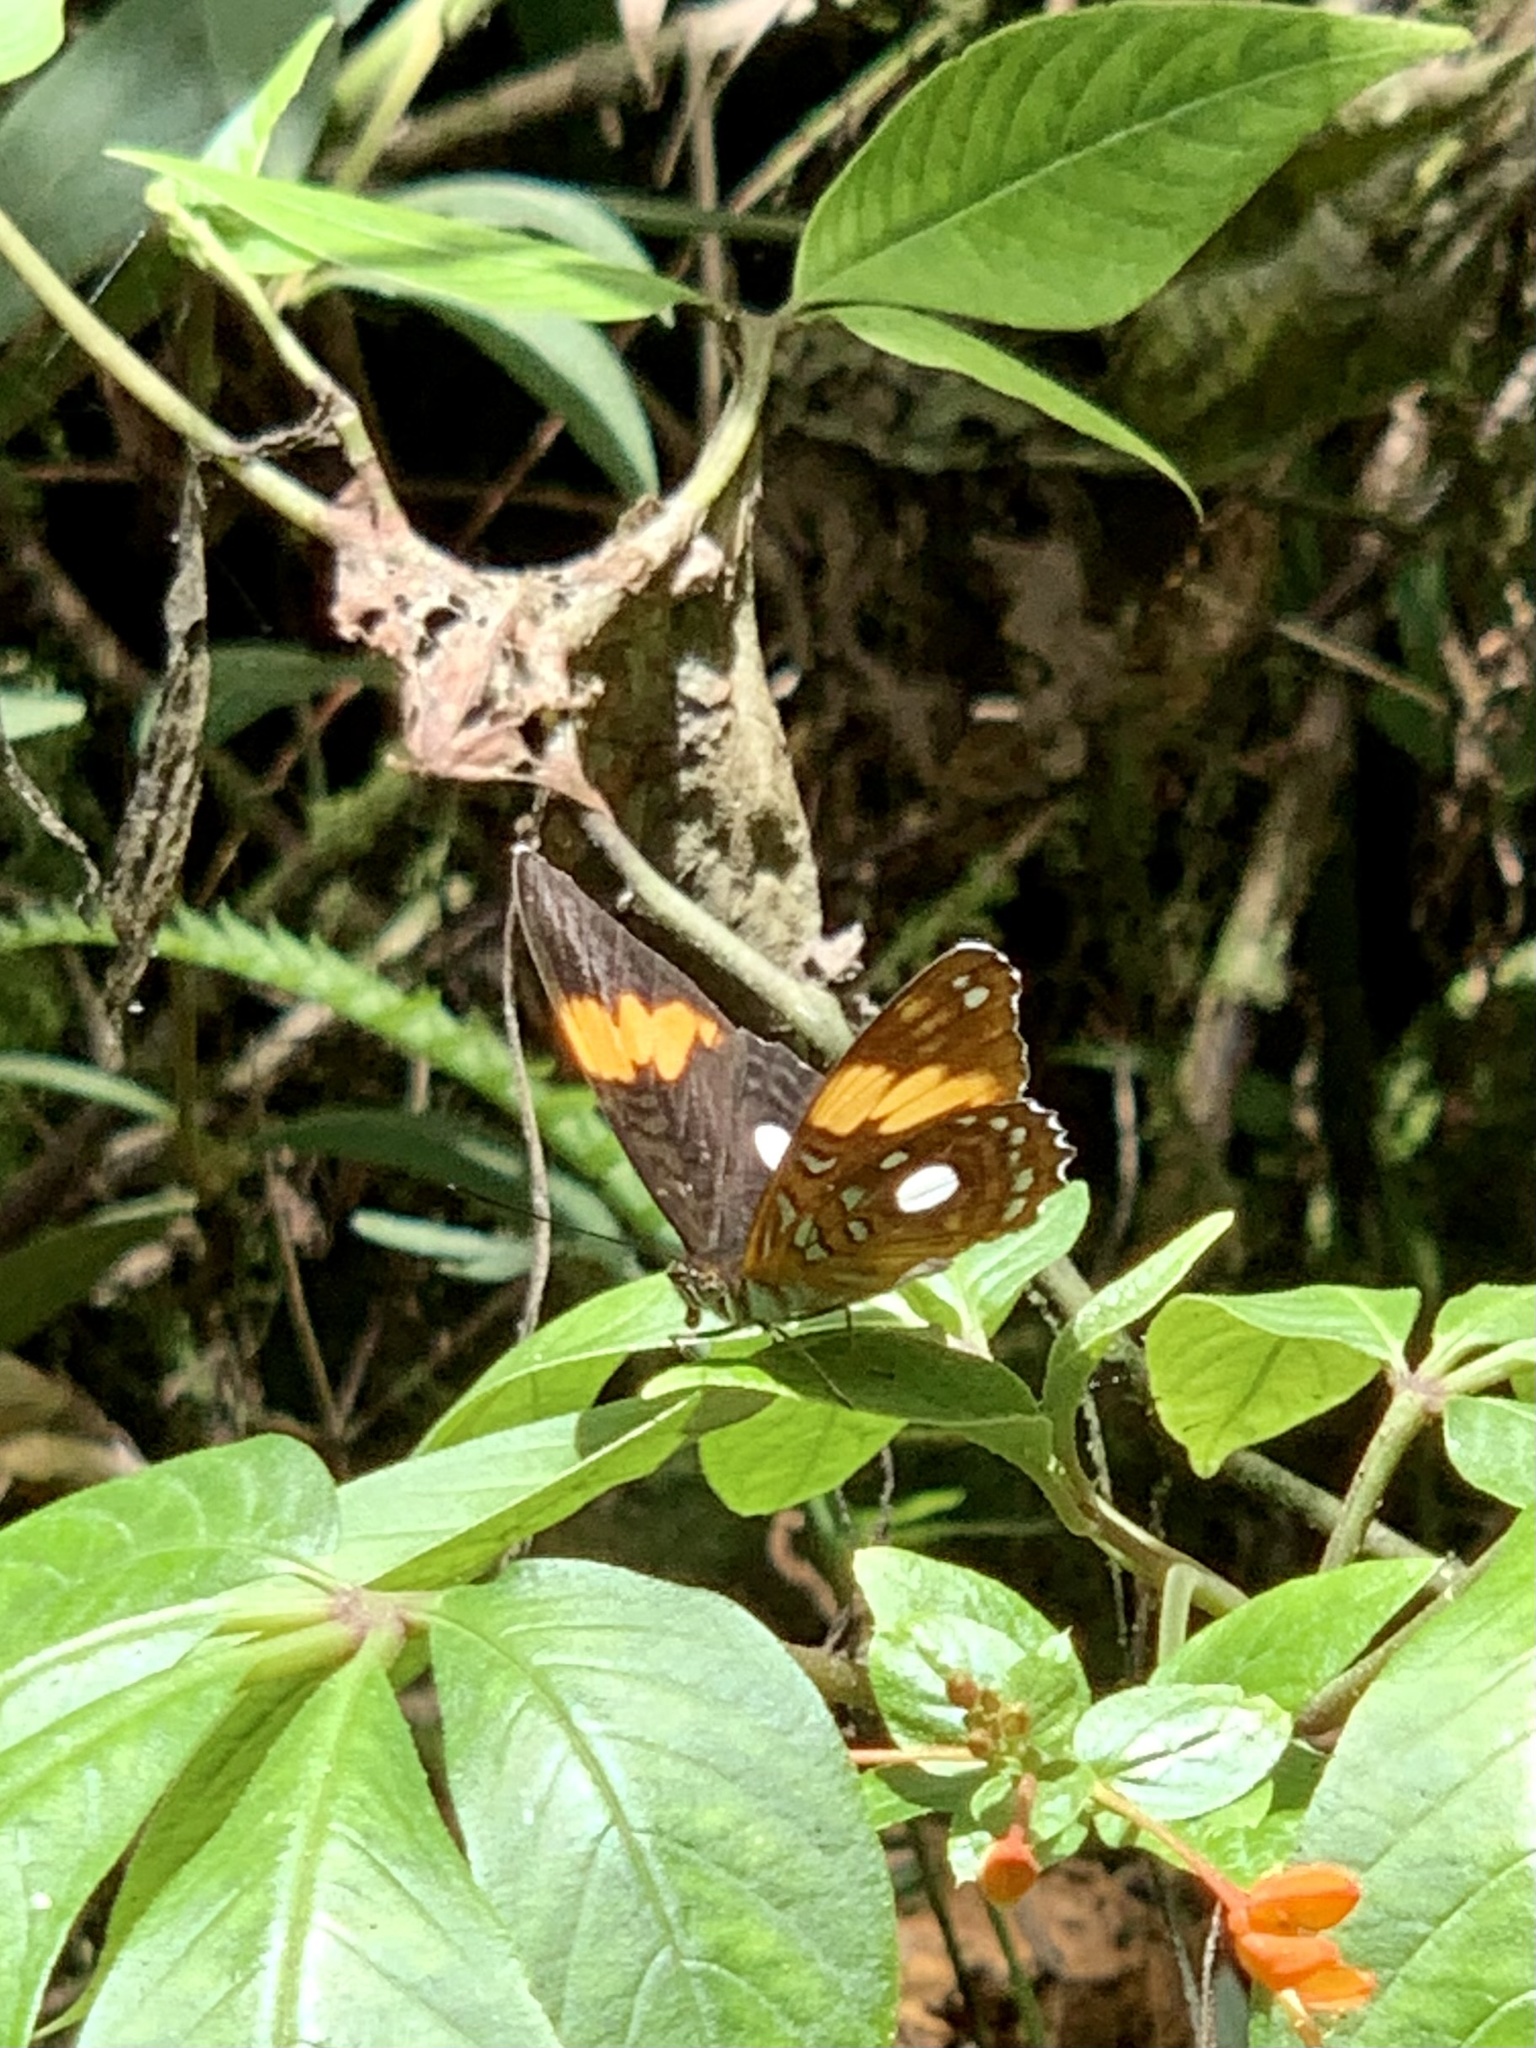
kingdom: Animalia
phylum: Arthropoda
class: Insecta
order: Lepidoptera
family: Nymphalidae
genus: Limenitis
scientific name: Limenitis leucophthalma
